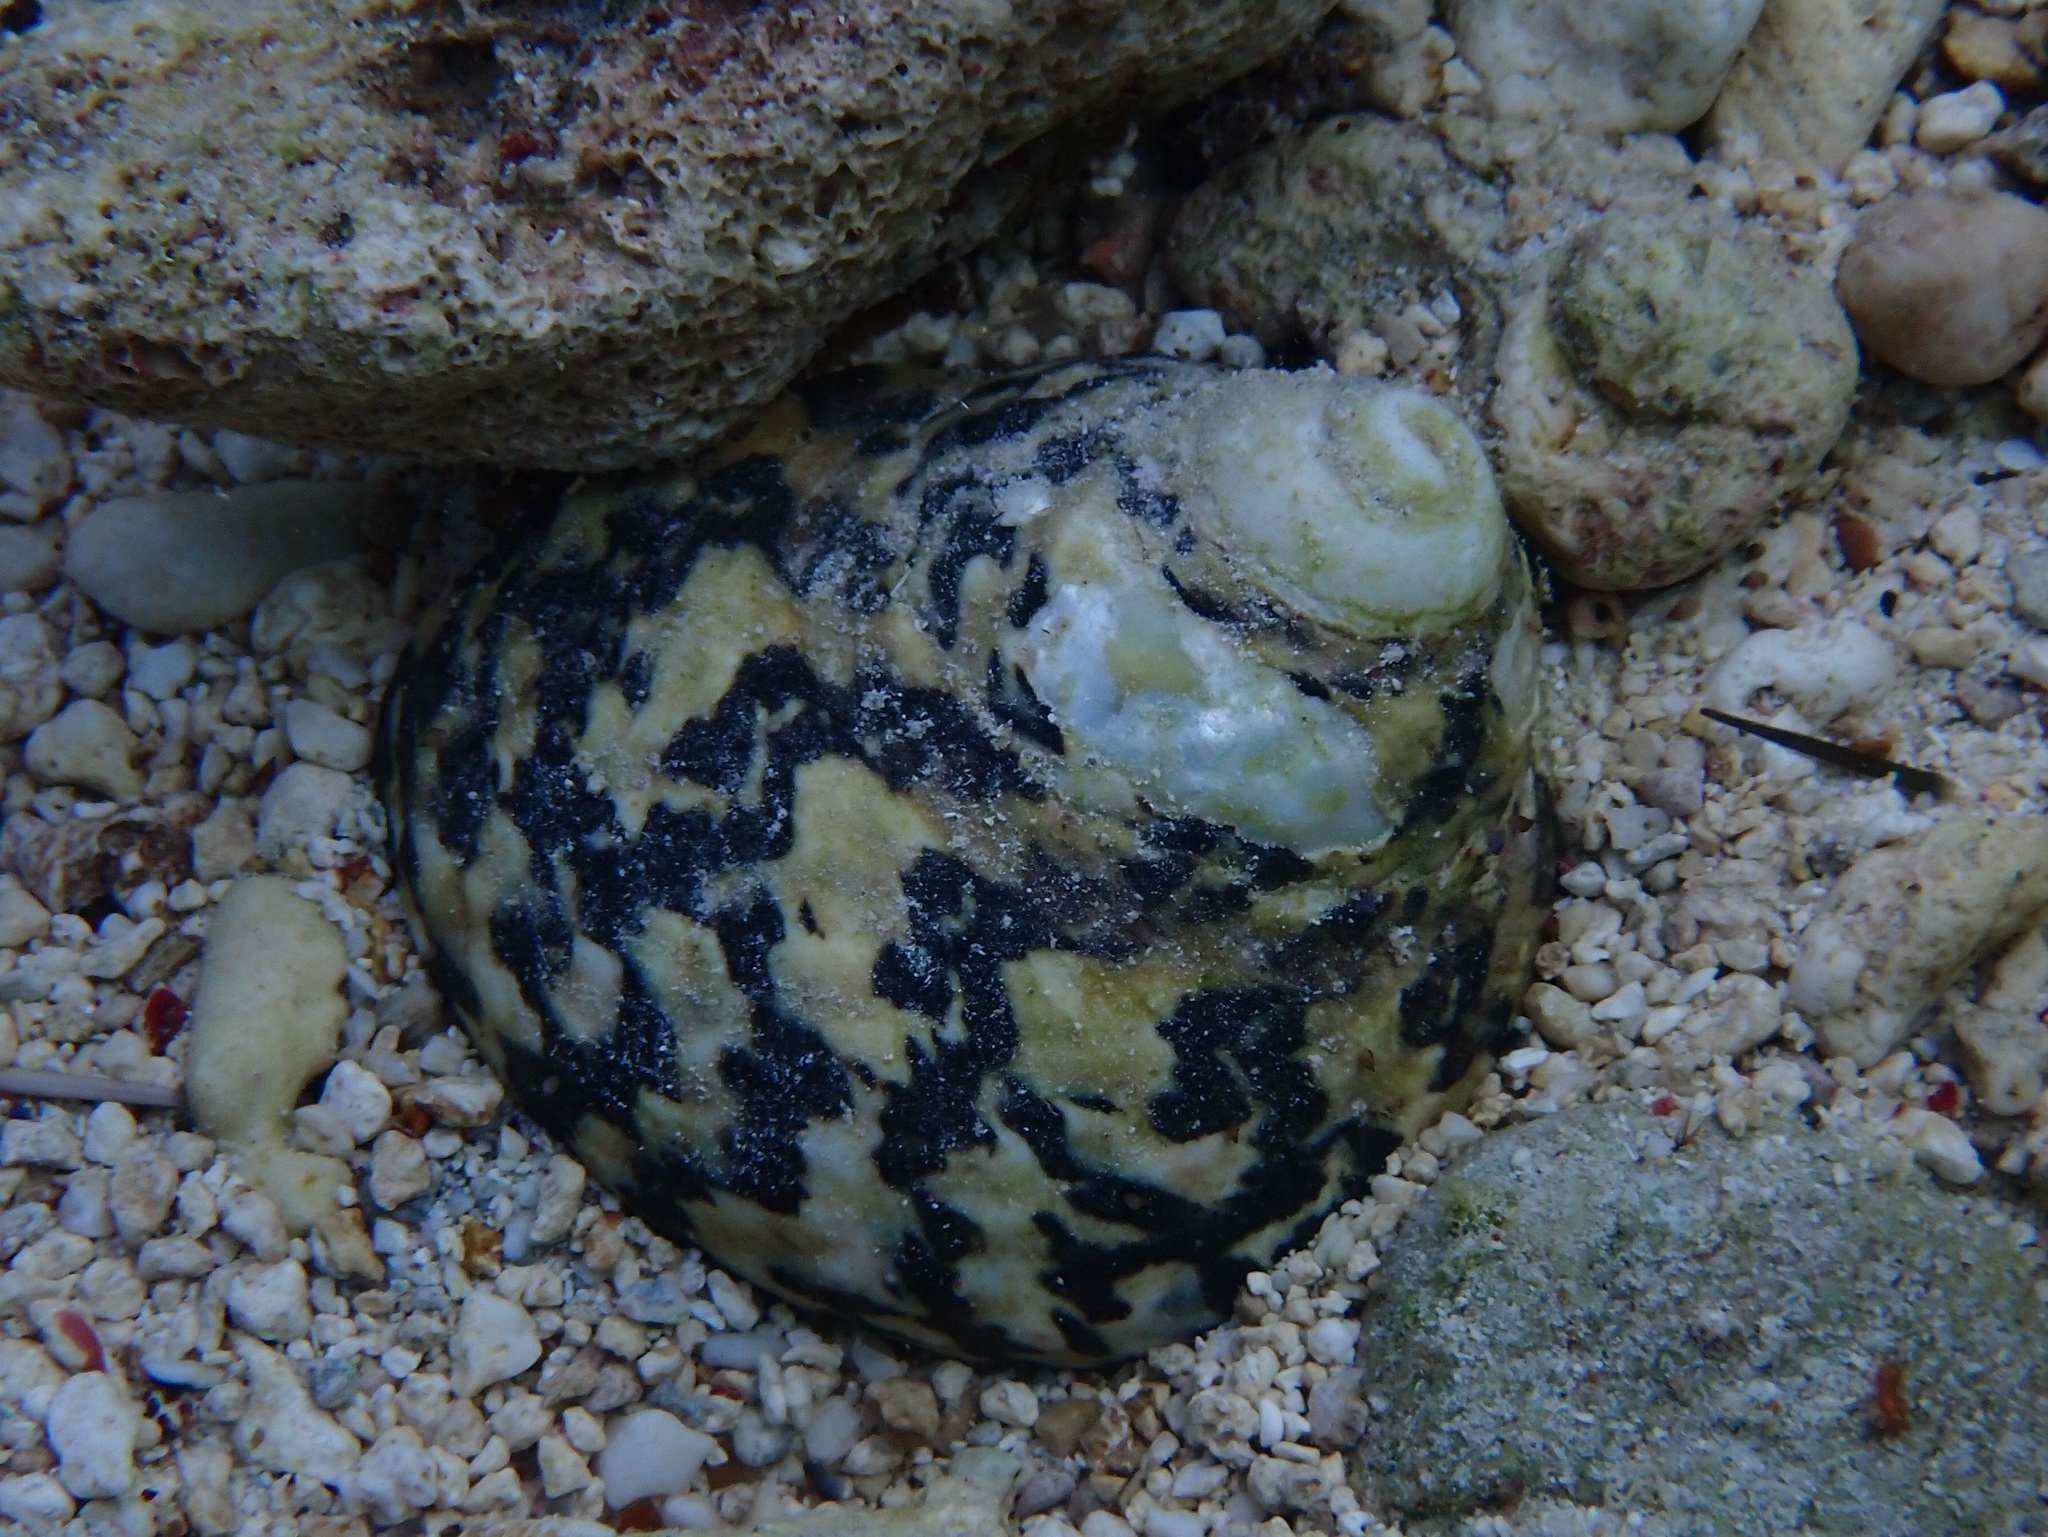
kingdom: Animalia
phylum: Mollusca
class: Gastropoda
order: Trochida
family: Tegulidae
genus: Cittarium
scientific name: Cittarium pica
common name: West indian topshell
